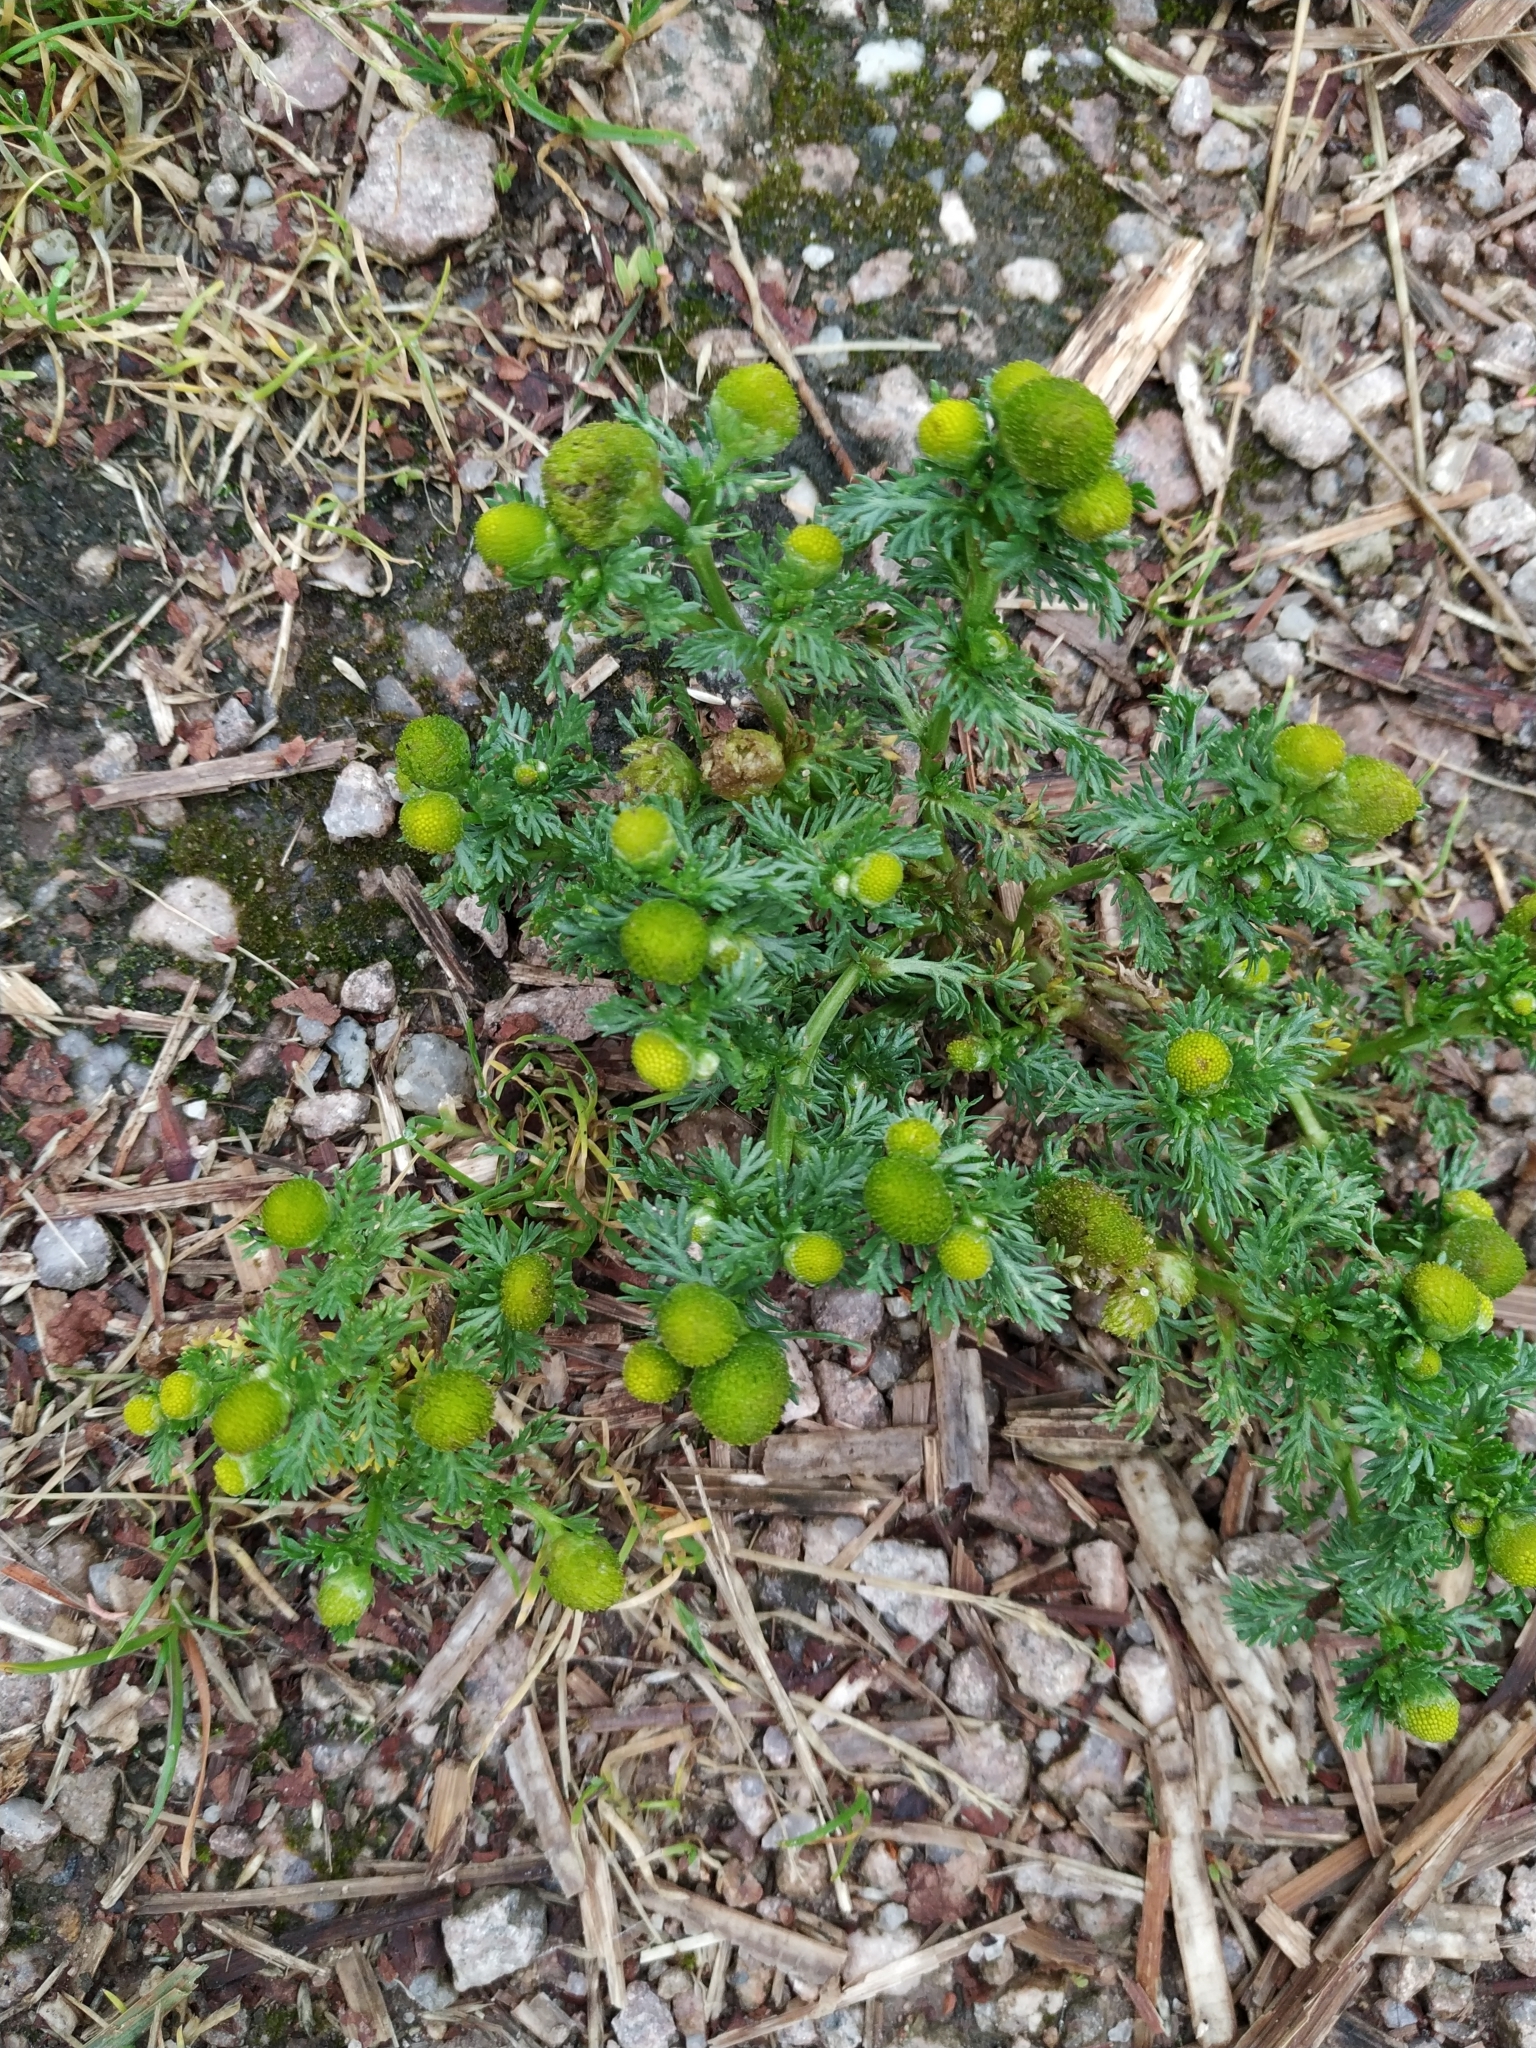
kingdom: Plantae
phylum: Tracheophyta
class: Magnoliopsida
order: Asterales
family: Asteraceae
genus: Matricaria
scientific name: Matricaria discoidea
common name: Disc mayweed
